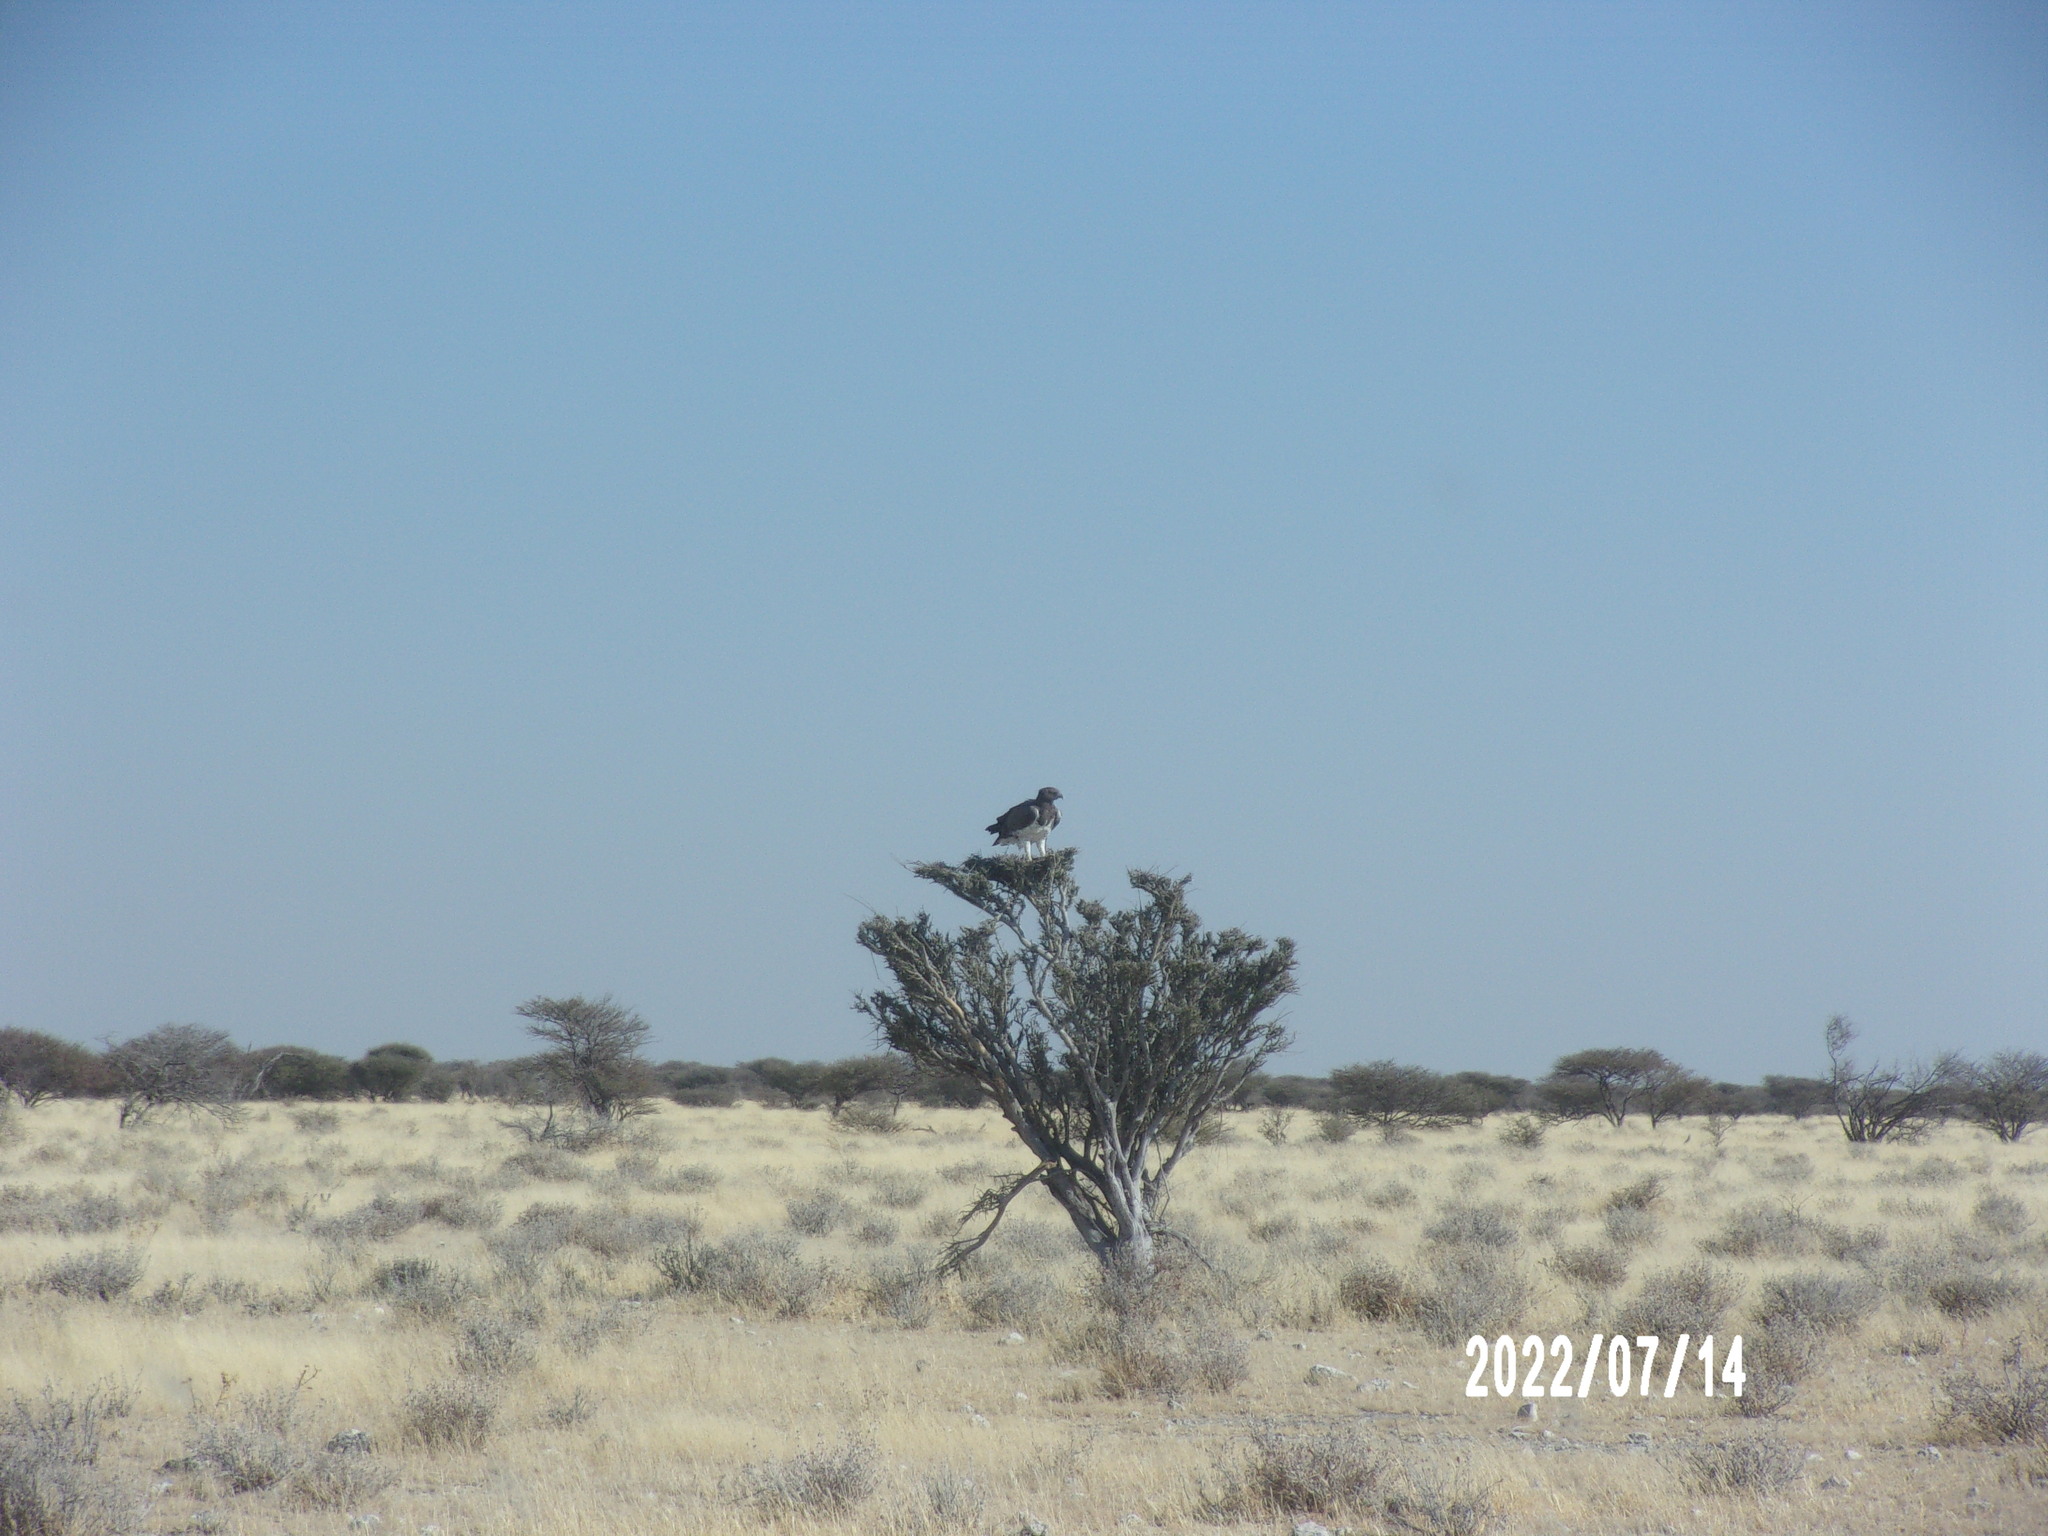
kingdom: Animalia
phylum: Chordata
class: Aves
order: Accipitriformes
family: Accipitridae
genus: Polemaetus
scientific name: Polemaetus bellicosus
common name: Martial eagle
